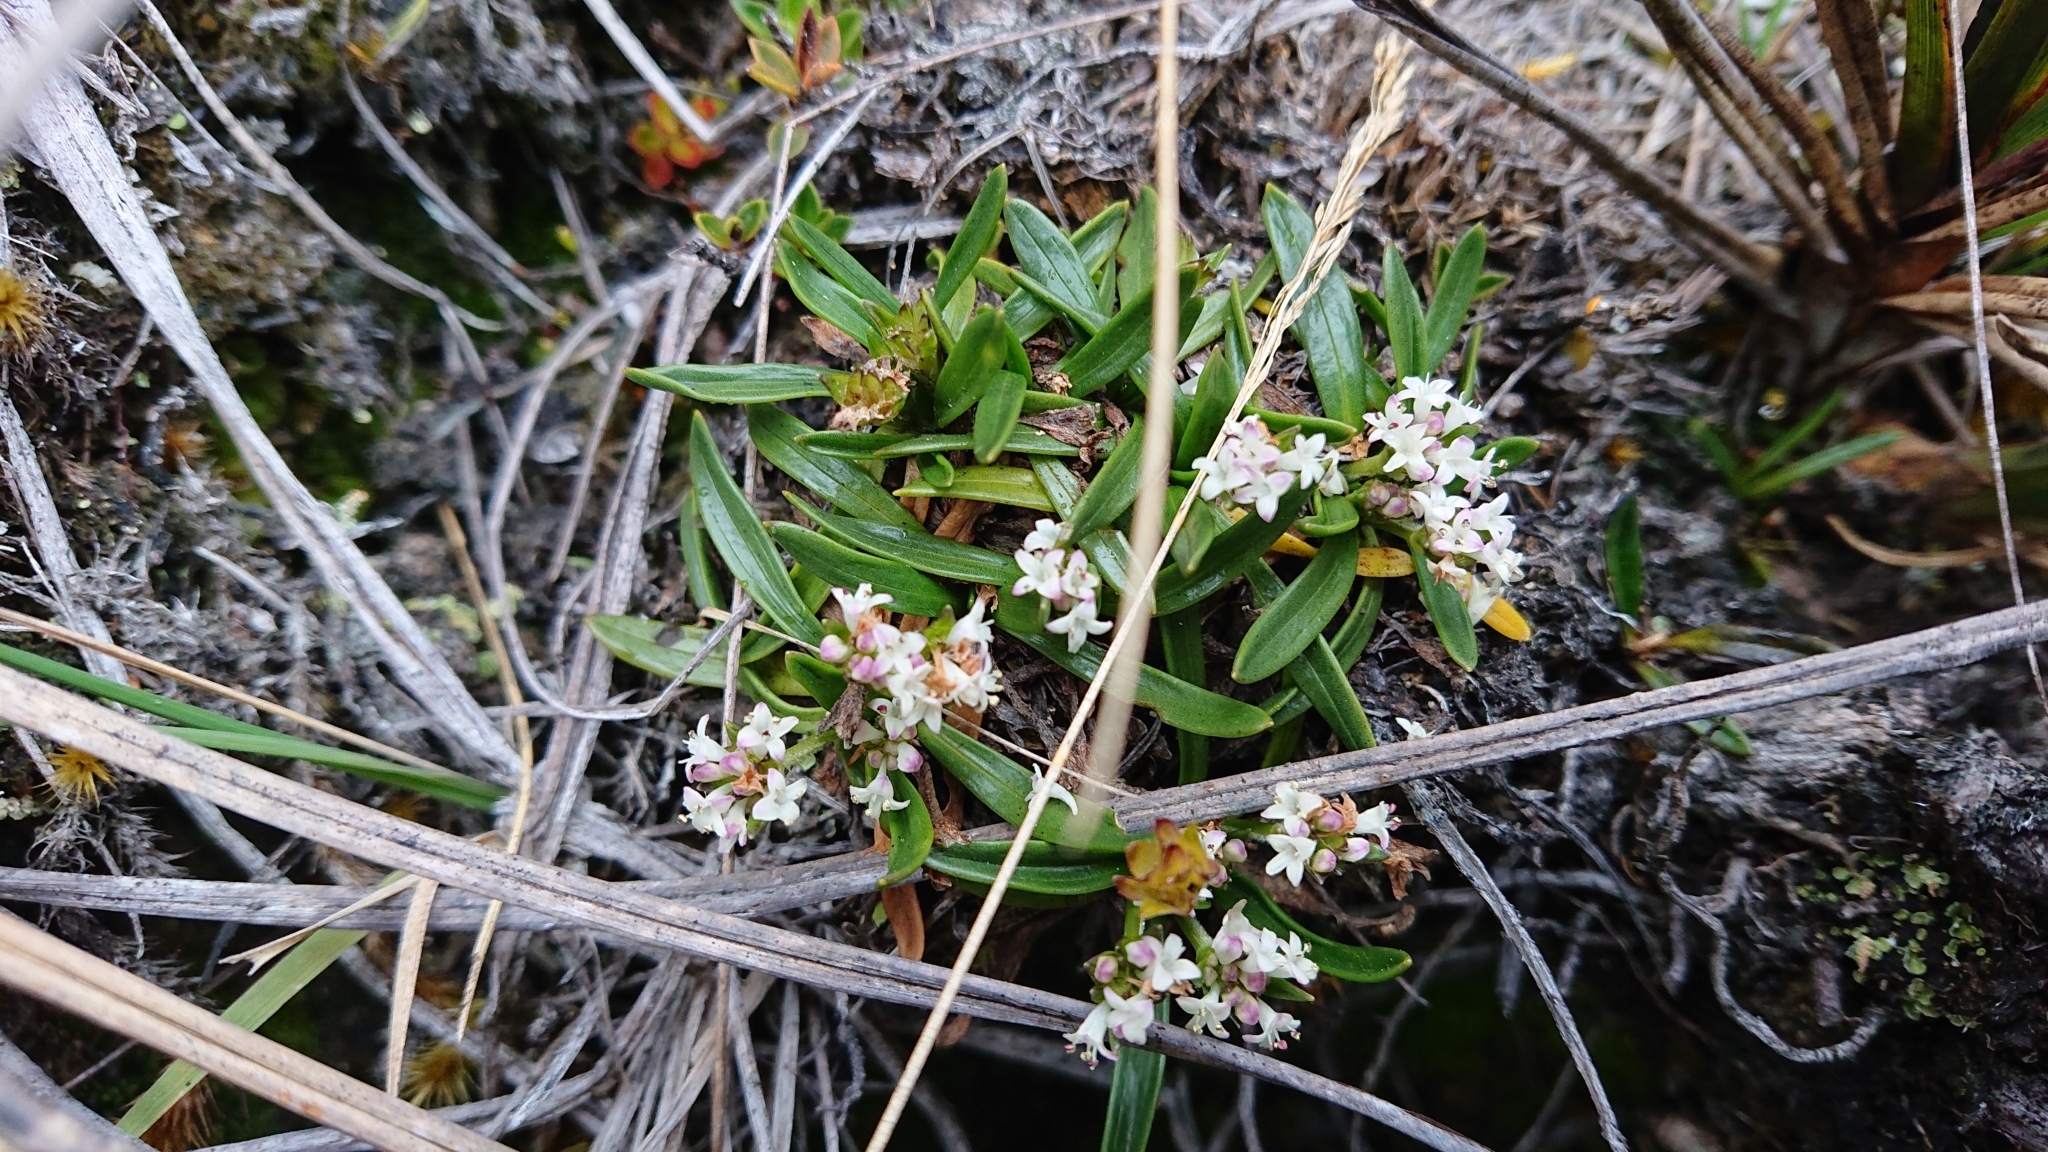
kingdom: Plantae
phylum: Tracheophyta
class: Magnoliopsida
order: Dipsacales
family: Caprifoliaceae
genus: Valeriana
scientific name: Valeriana bracteata
